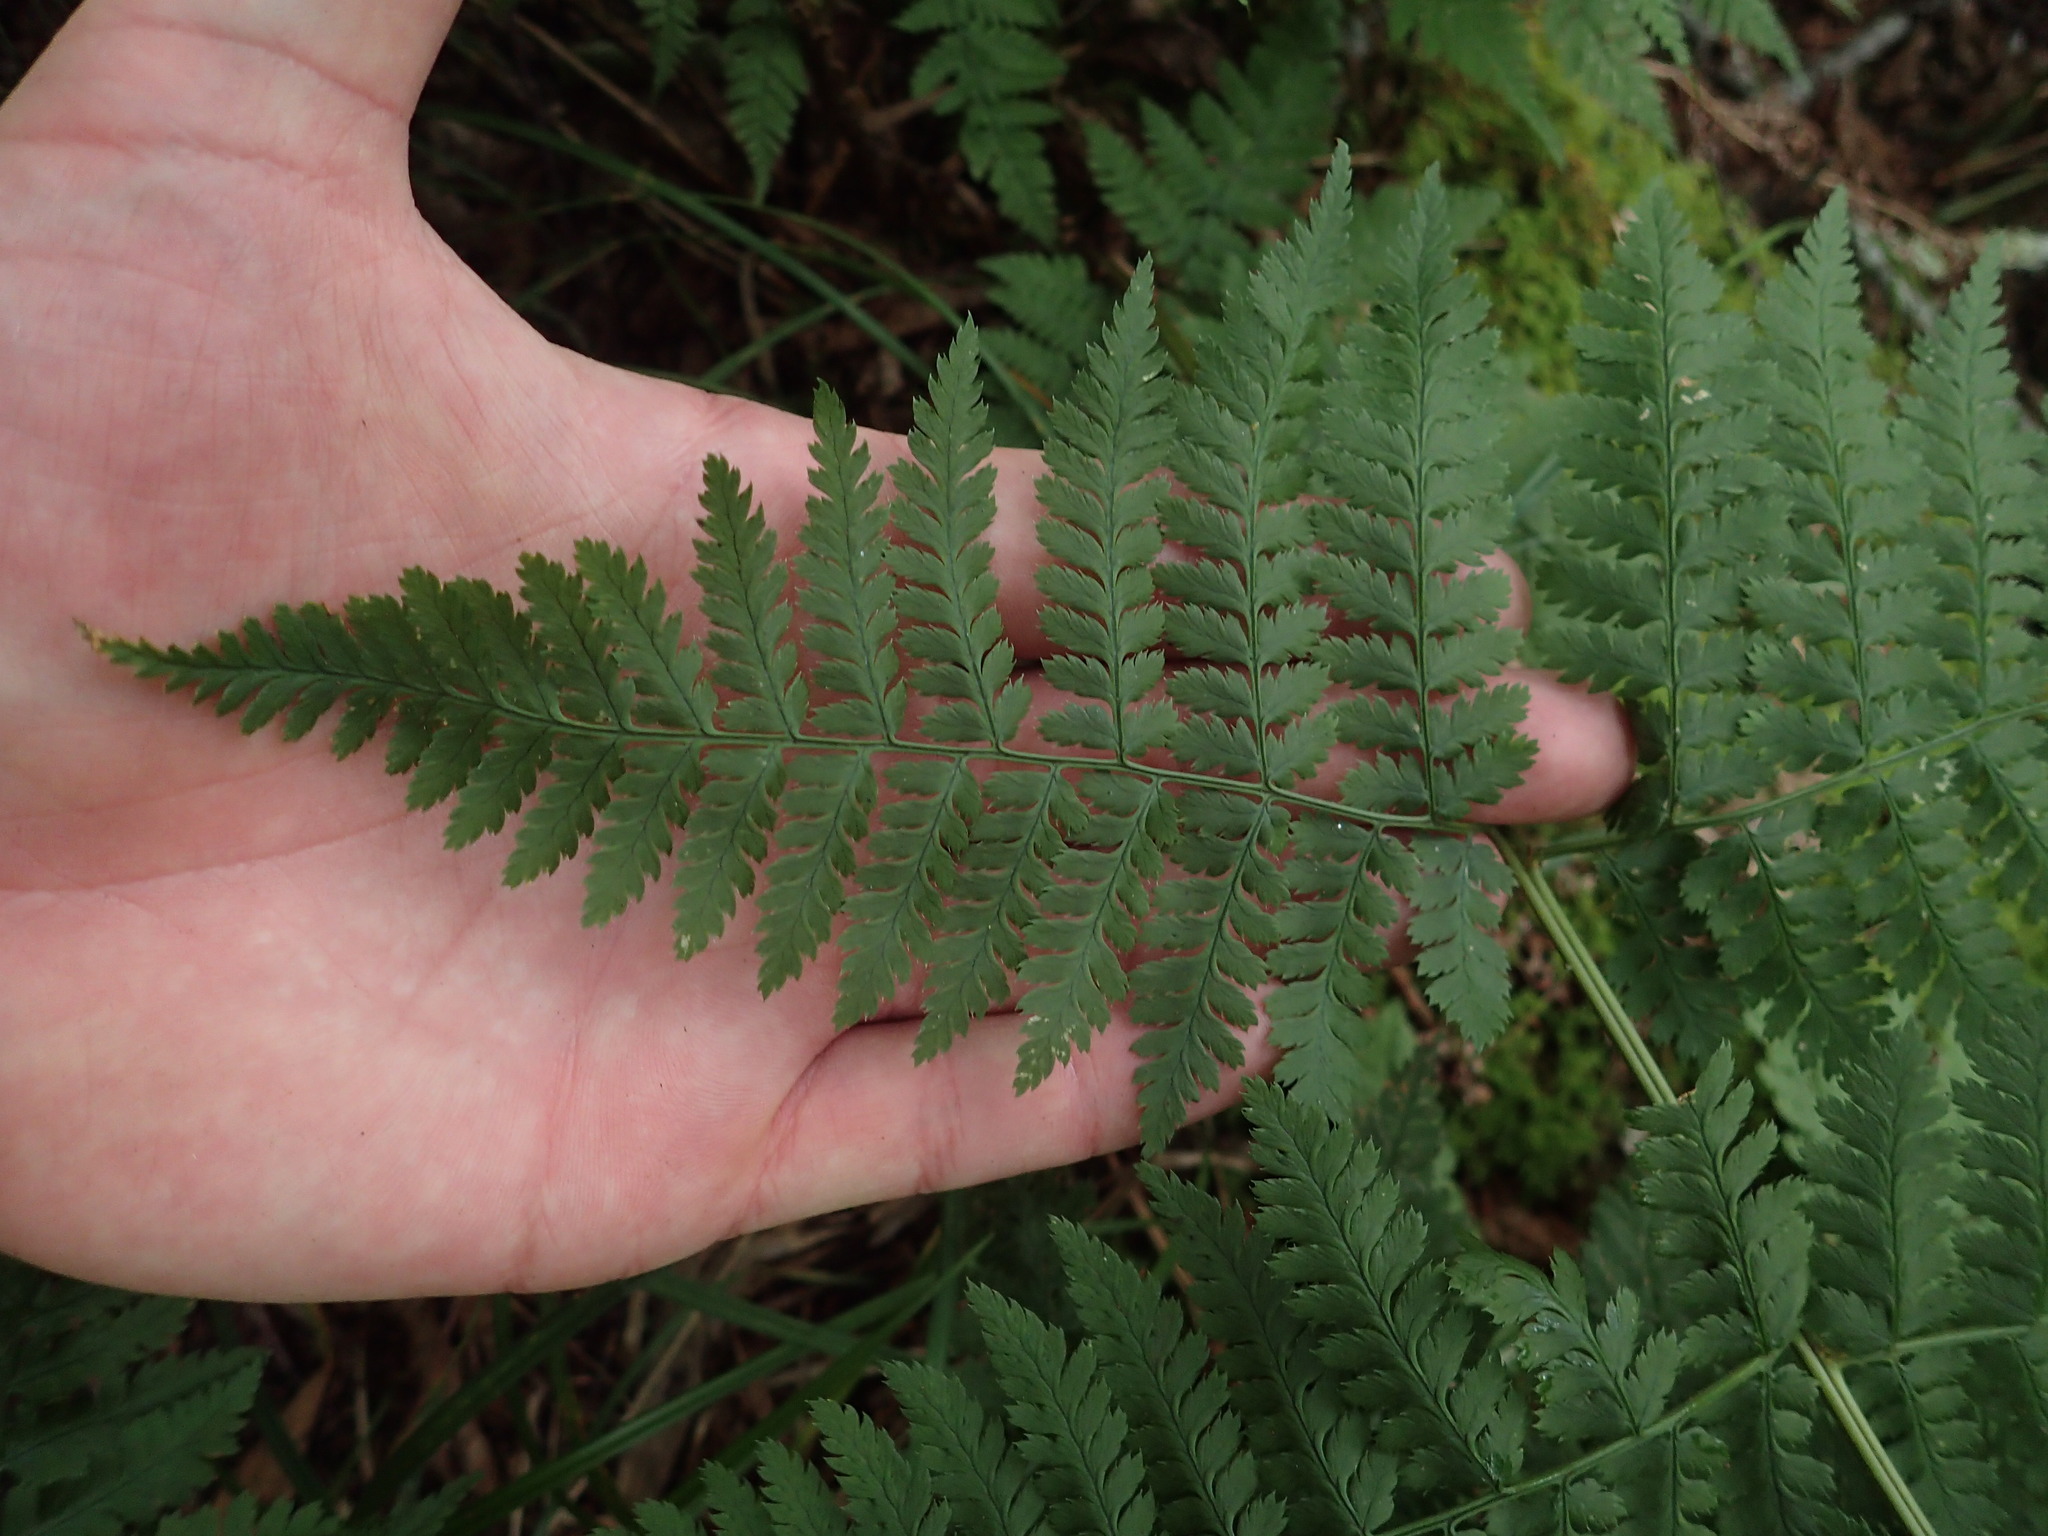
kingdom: Plantae
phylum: Tracheophyta
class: Polypodiopsida
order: Polypodiales
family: Dryopteridaceae
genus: Dryopteris
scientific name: Dryopteris campyloptera
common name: Mountain wood fern
